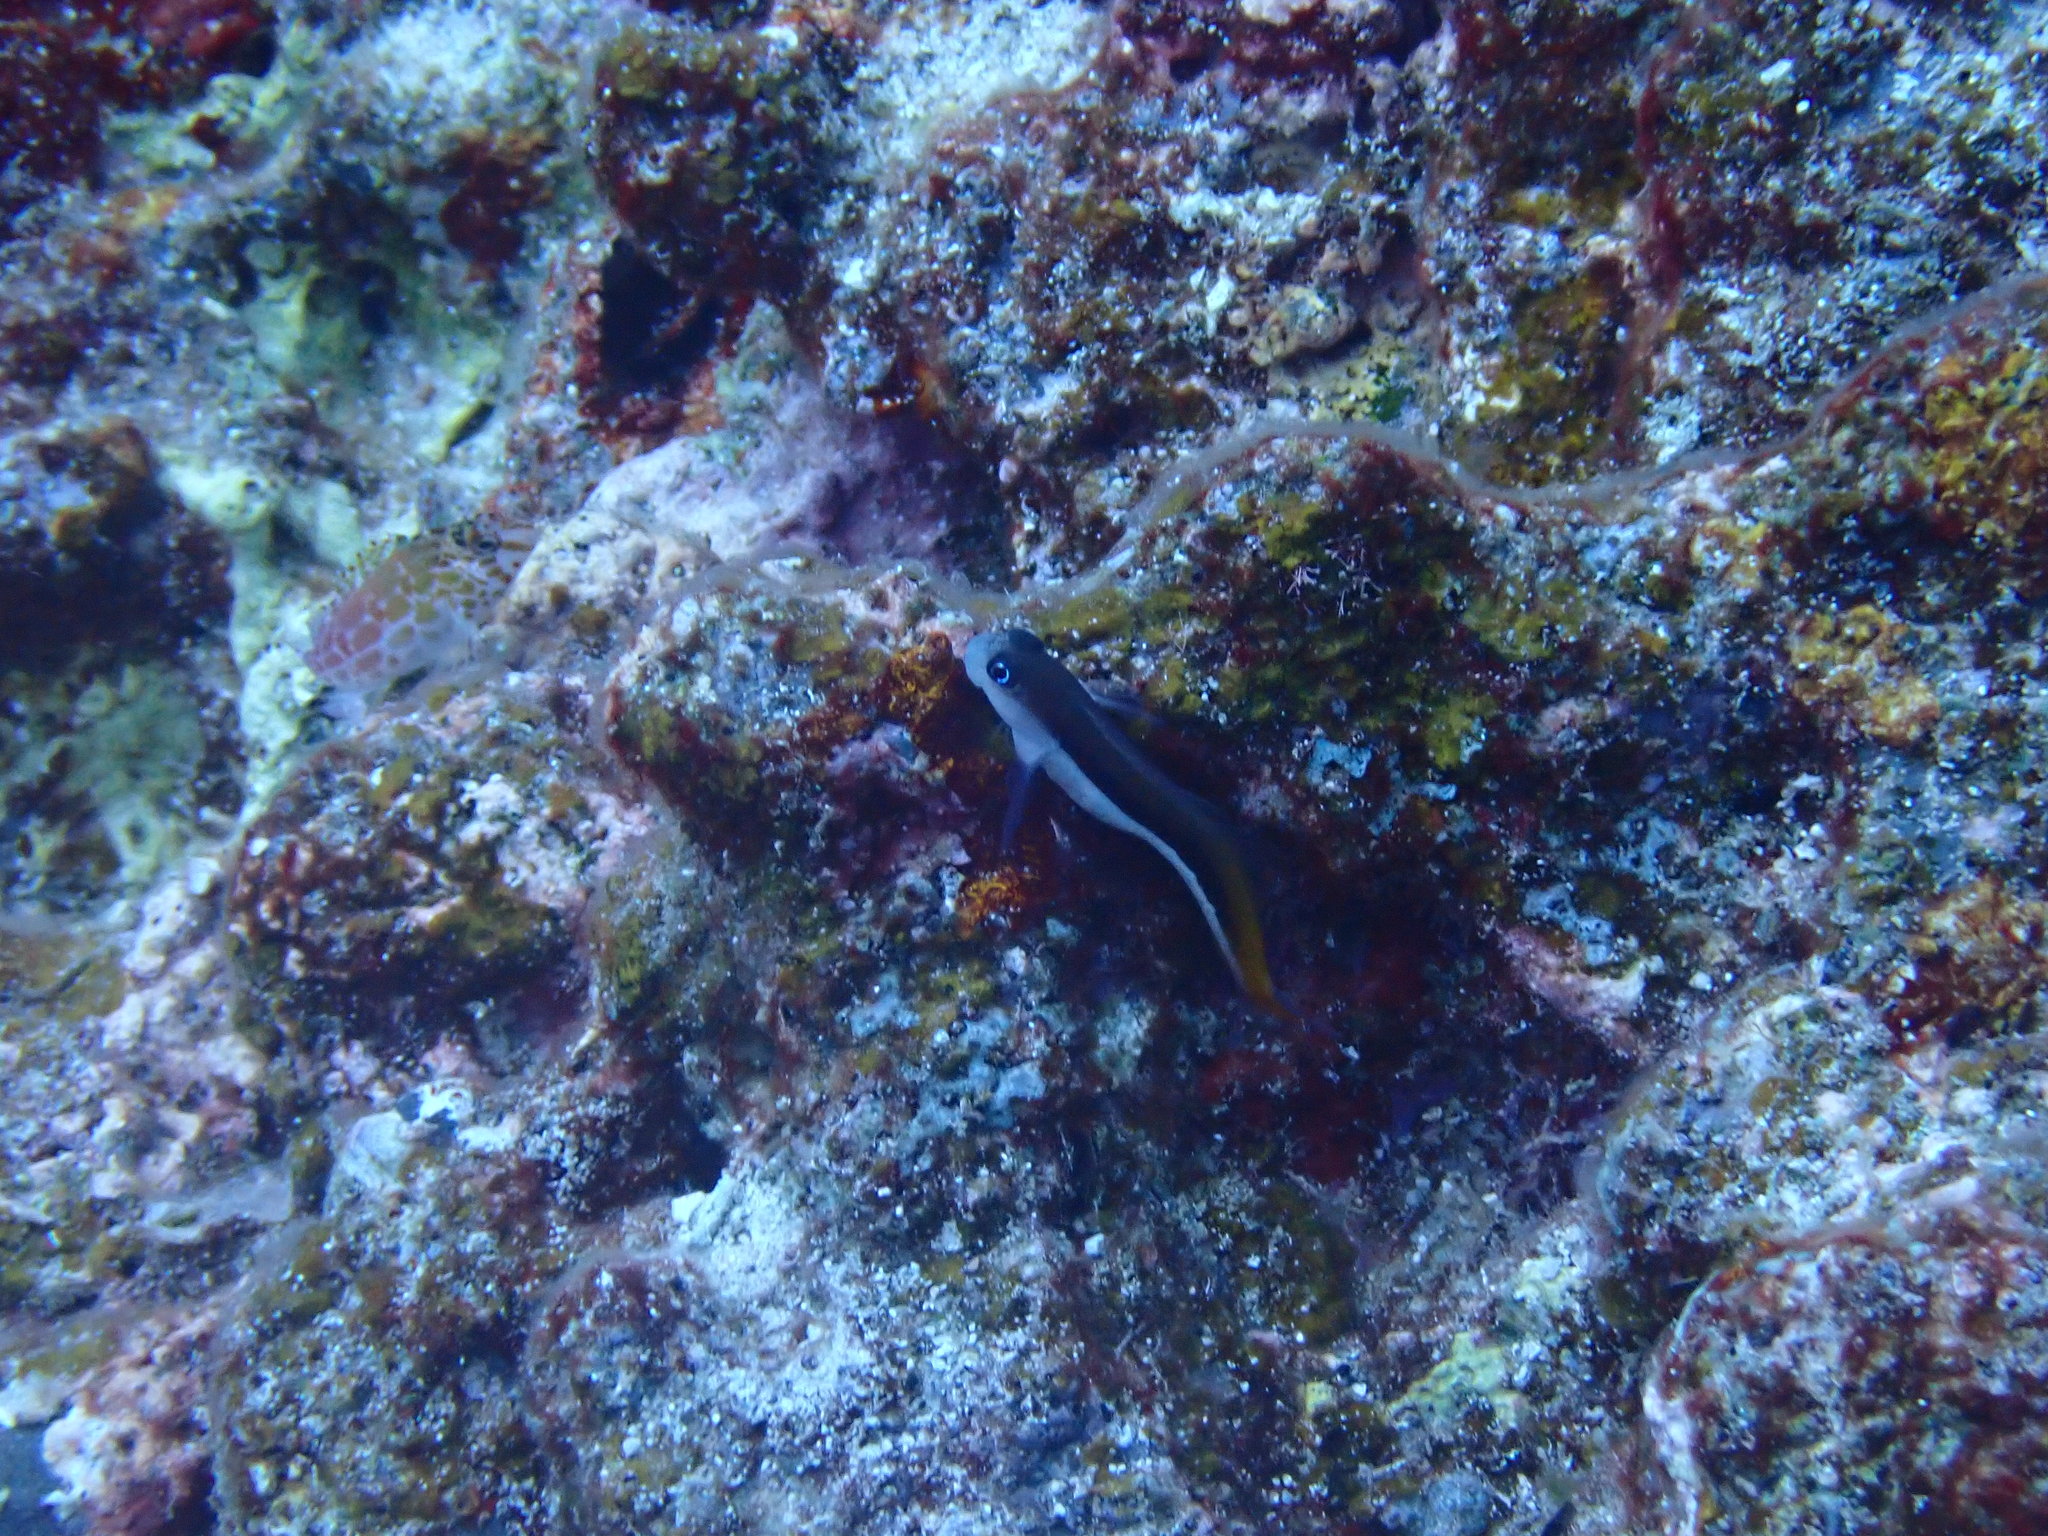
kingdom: Animalia
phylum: Chordata
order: Perciformes
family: Blenniidae
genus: Ecsenius
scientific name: Ecsenius bicolor
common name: Bicolor blenny
